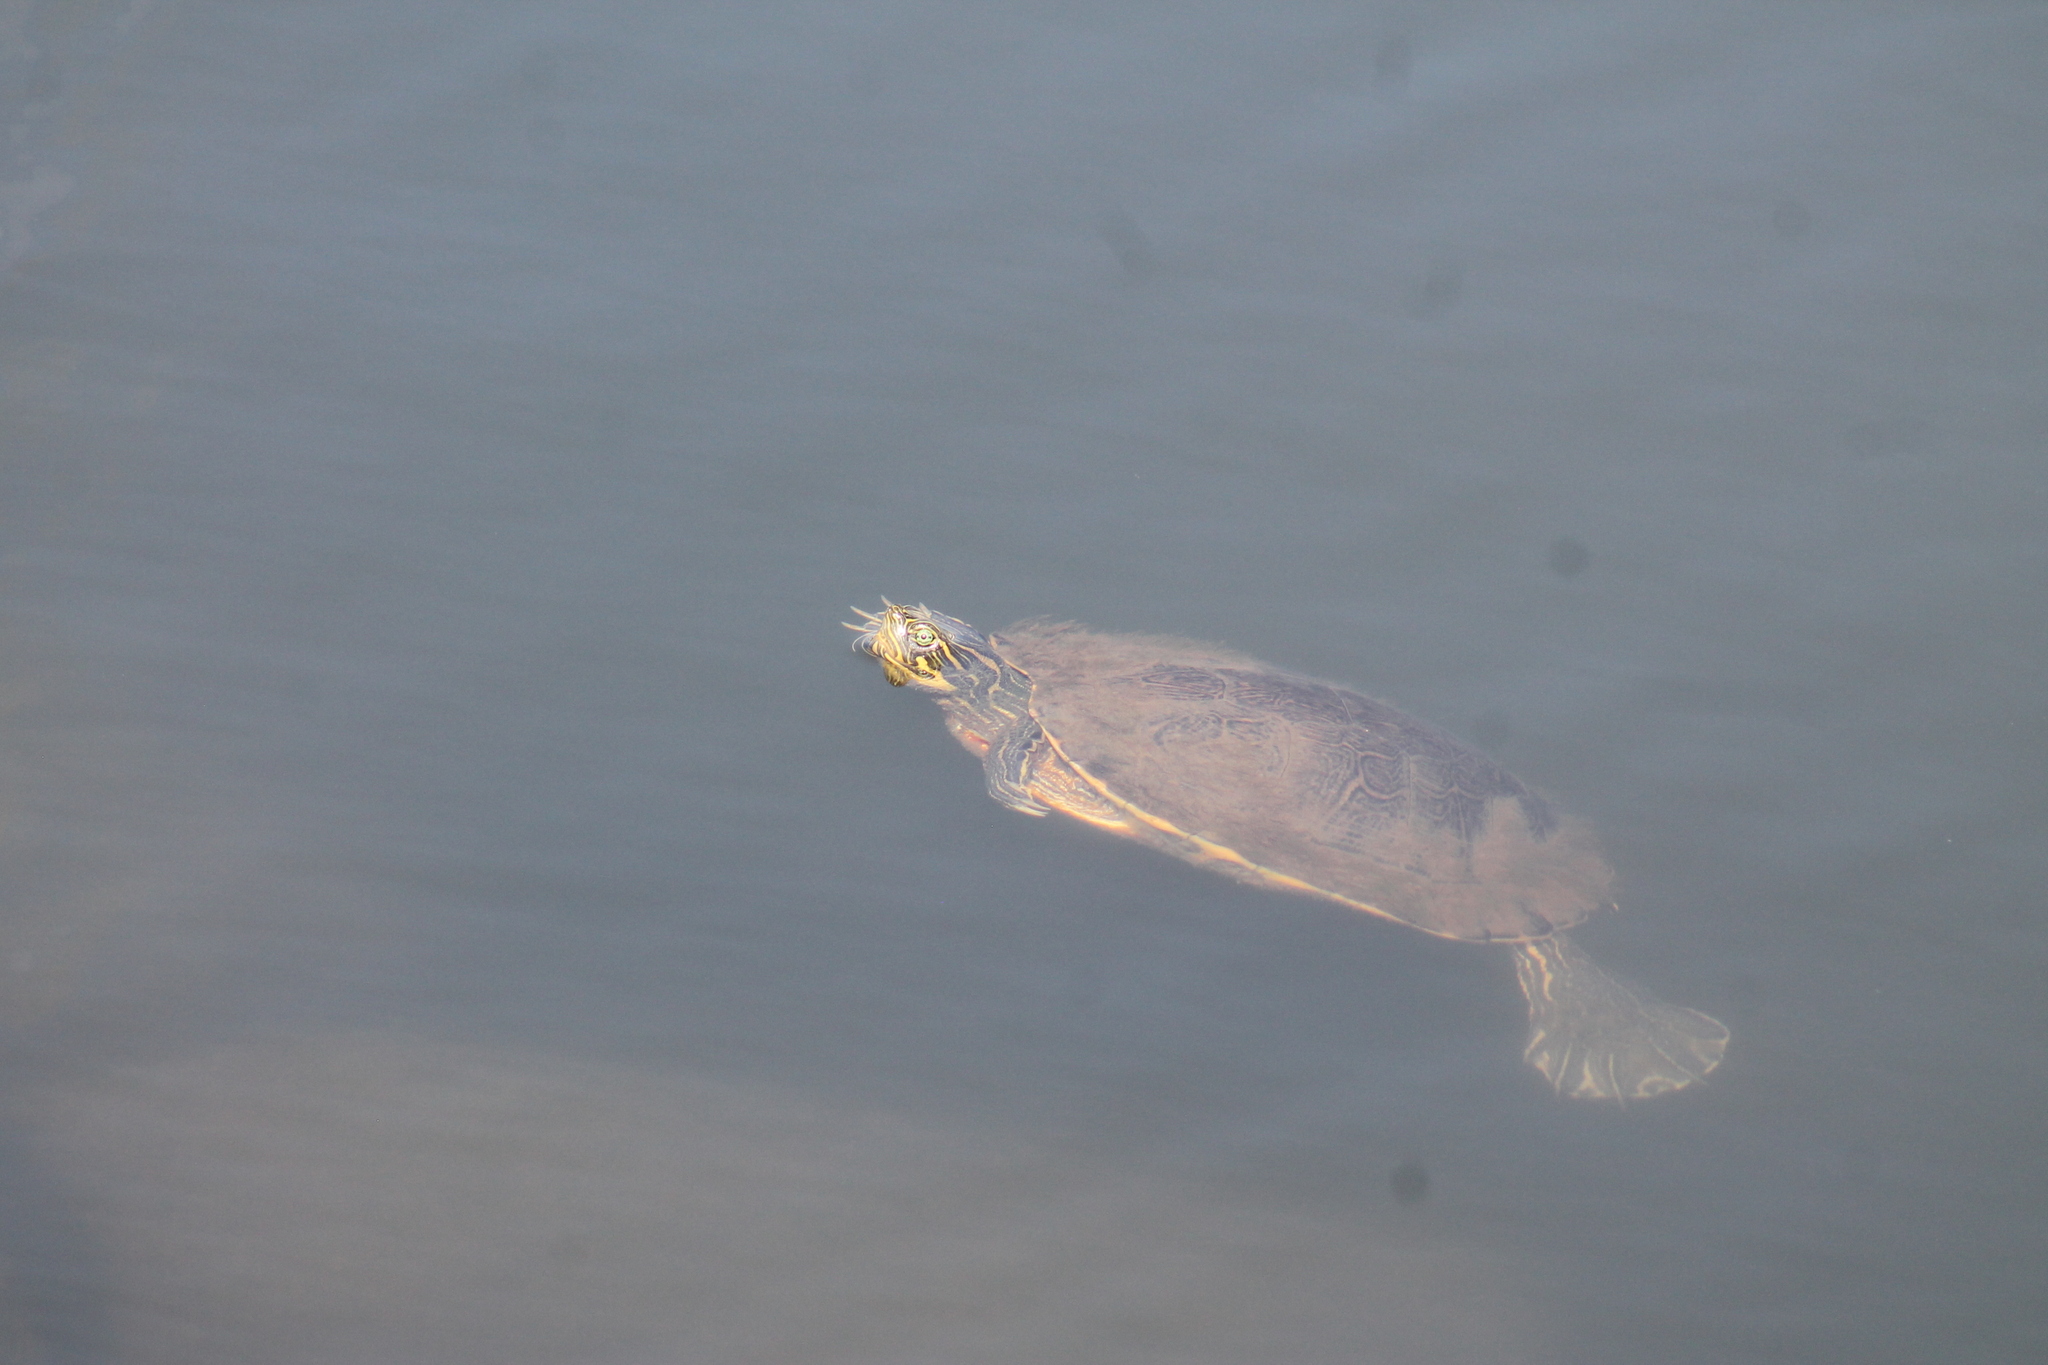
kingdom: Animalia
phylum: Chordata
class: Testudines
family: Emydidae
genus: Pseudemys
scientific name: Pseudemys concinna
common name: Eastern river cooter
